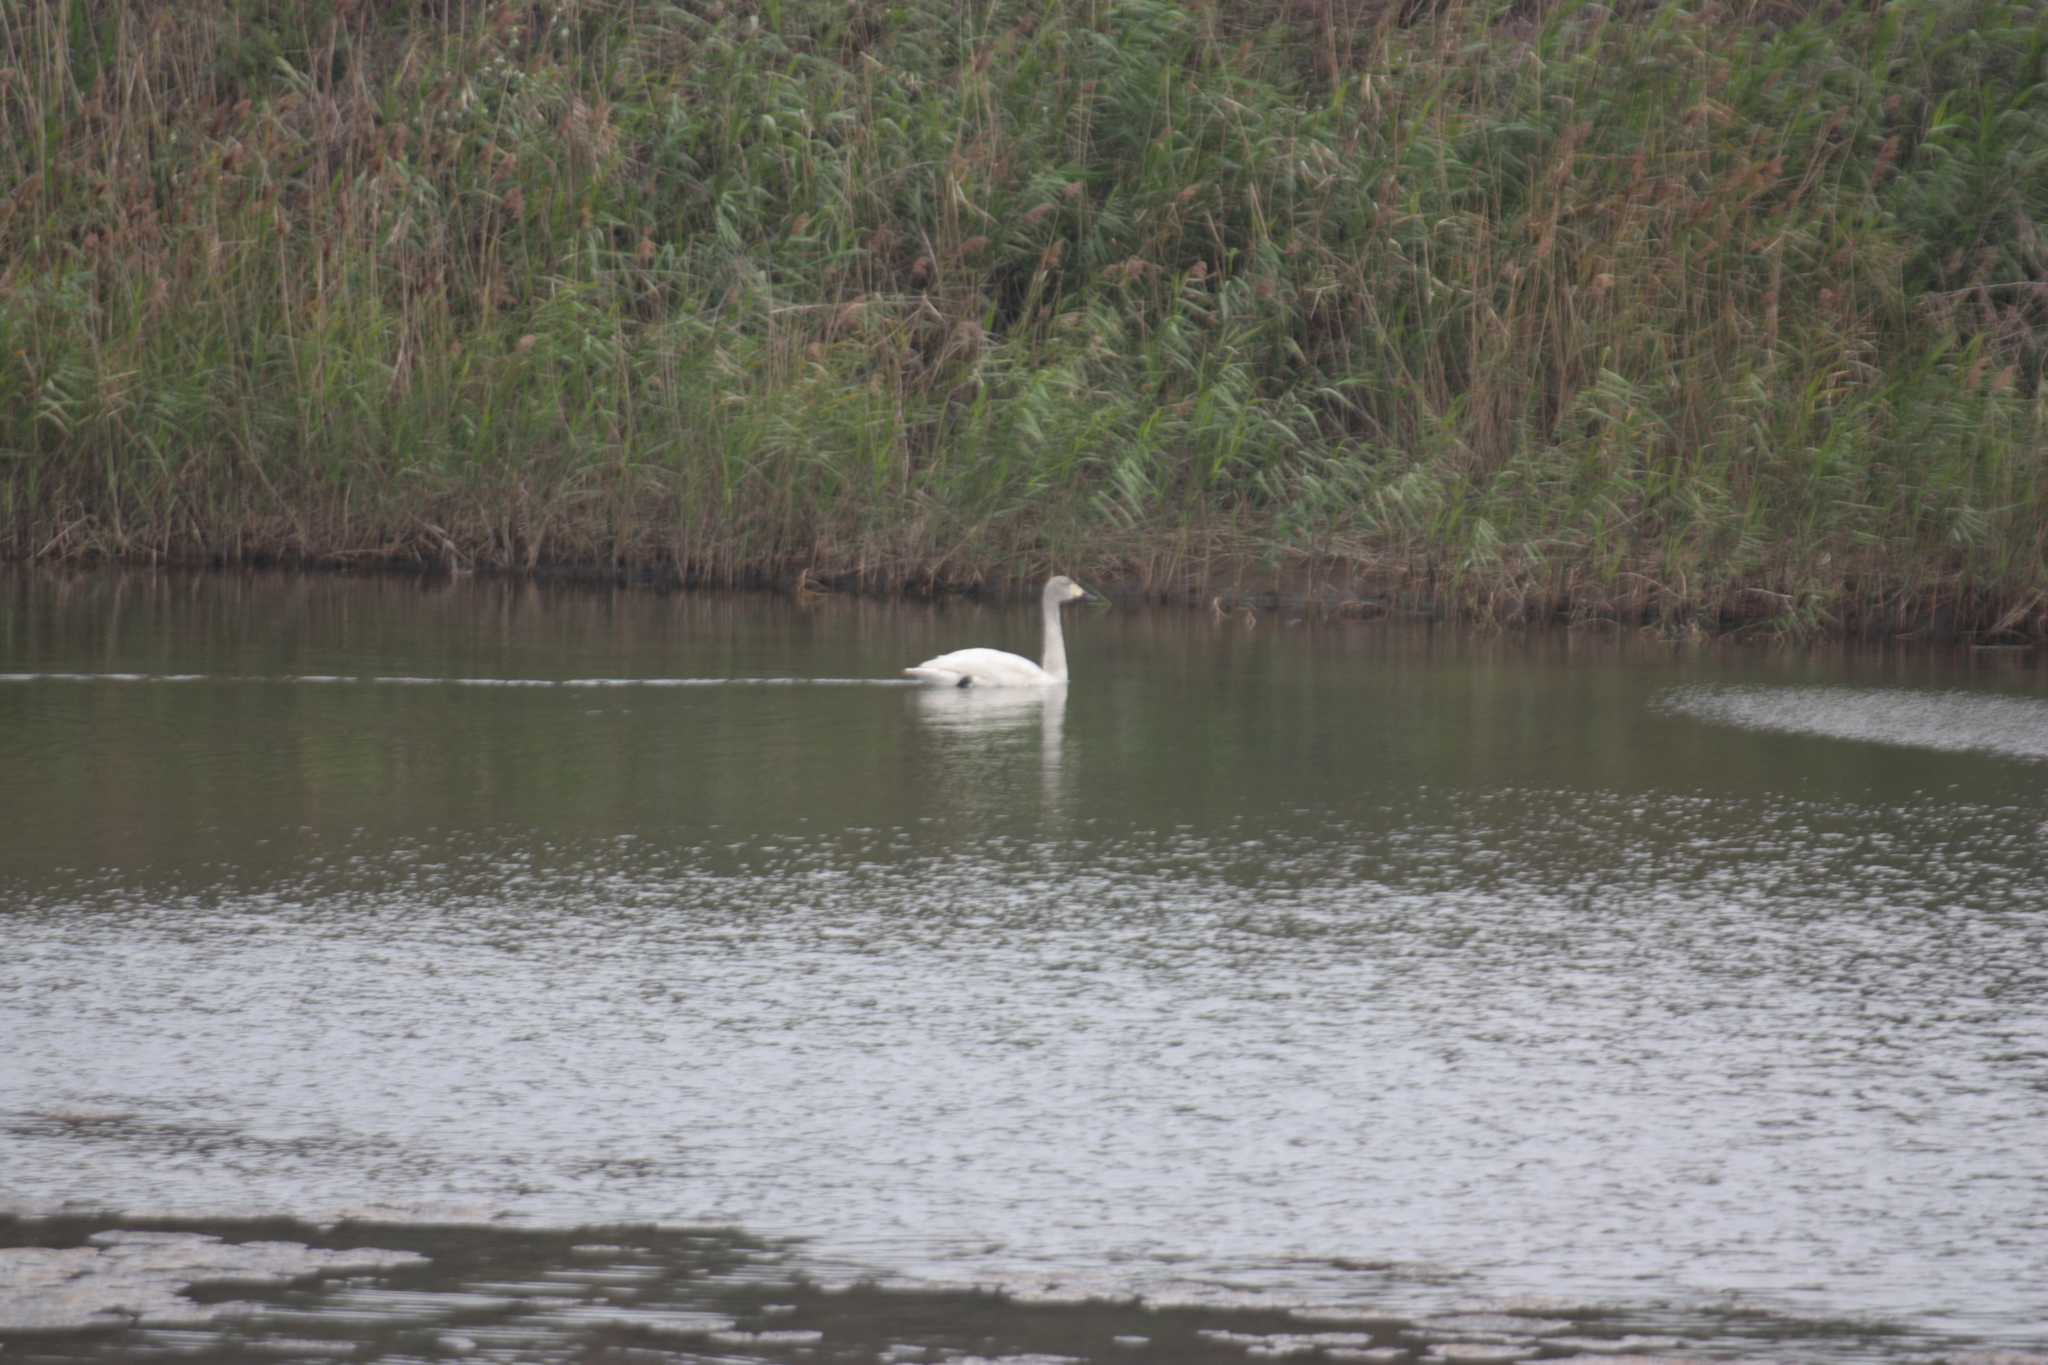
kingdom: Animalia
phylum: Chordata
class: Aves
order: Anseriformes
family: Anatidae
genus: Cygnus
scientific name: Cygnus columbianus
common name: Tundra swan
